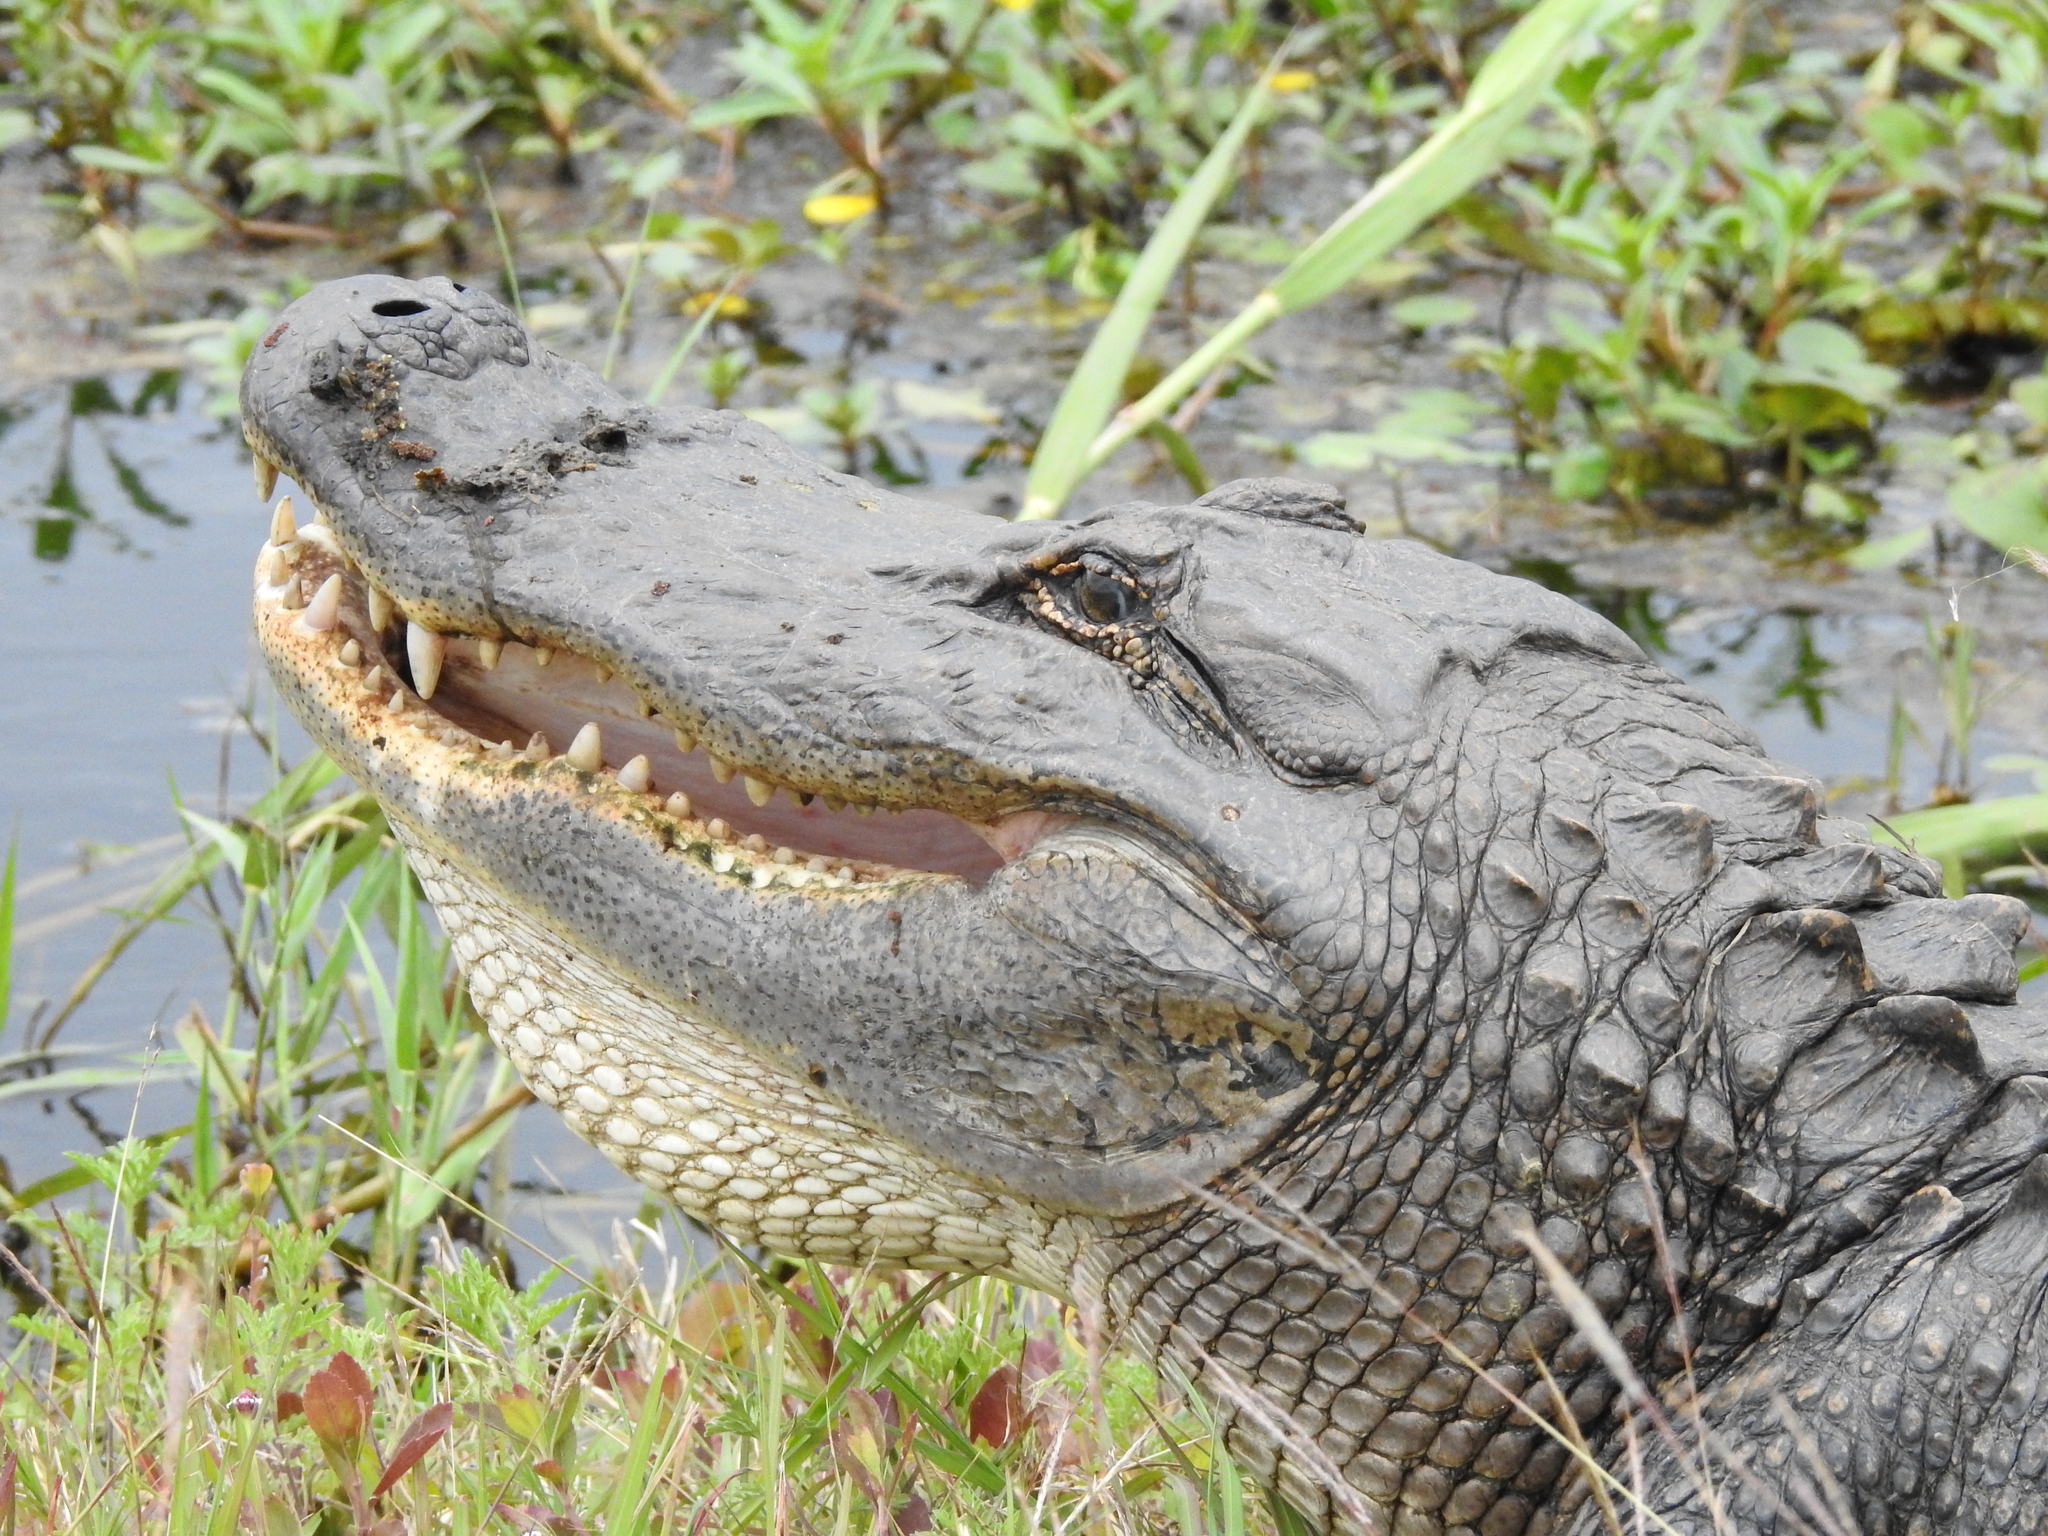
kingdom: Animalia
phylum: Chordata
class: Crocodylia
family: Alligatoridae
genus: Alligator
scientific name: Alligator mississippiensis
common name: American alligator
